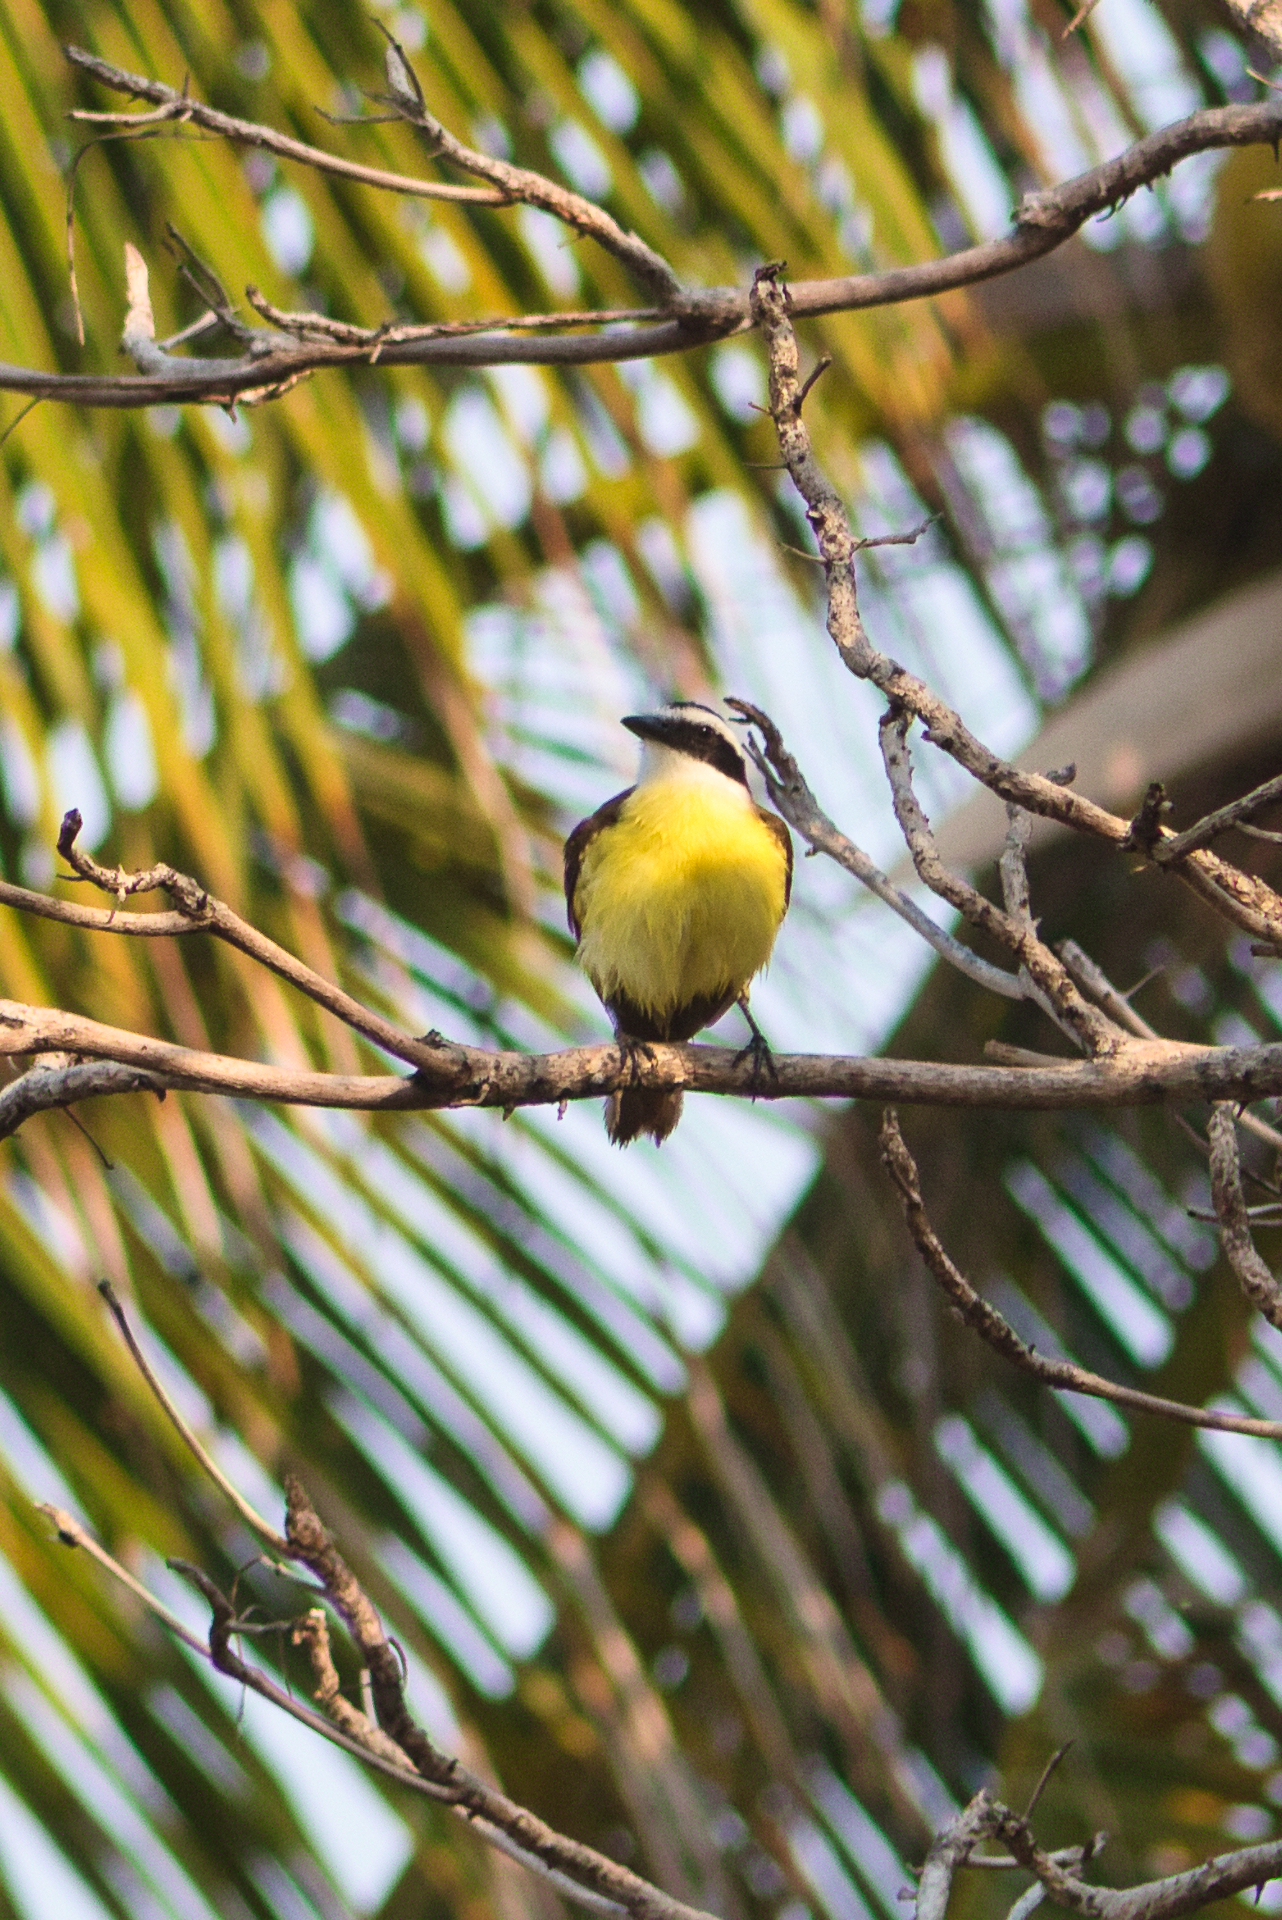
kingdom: Animalia
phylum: Chordata
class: Aves
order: Passeriformes
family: Tyrannidae
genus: Pitangus
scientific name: Pitangus sulphuratus
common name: Great kiskadee
